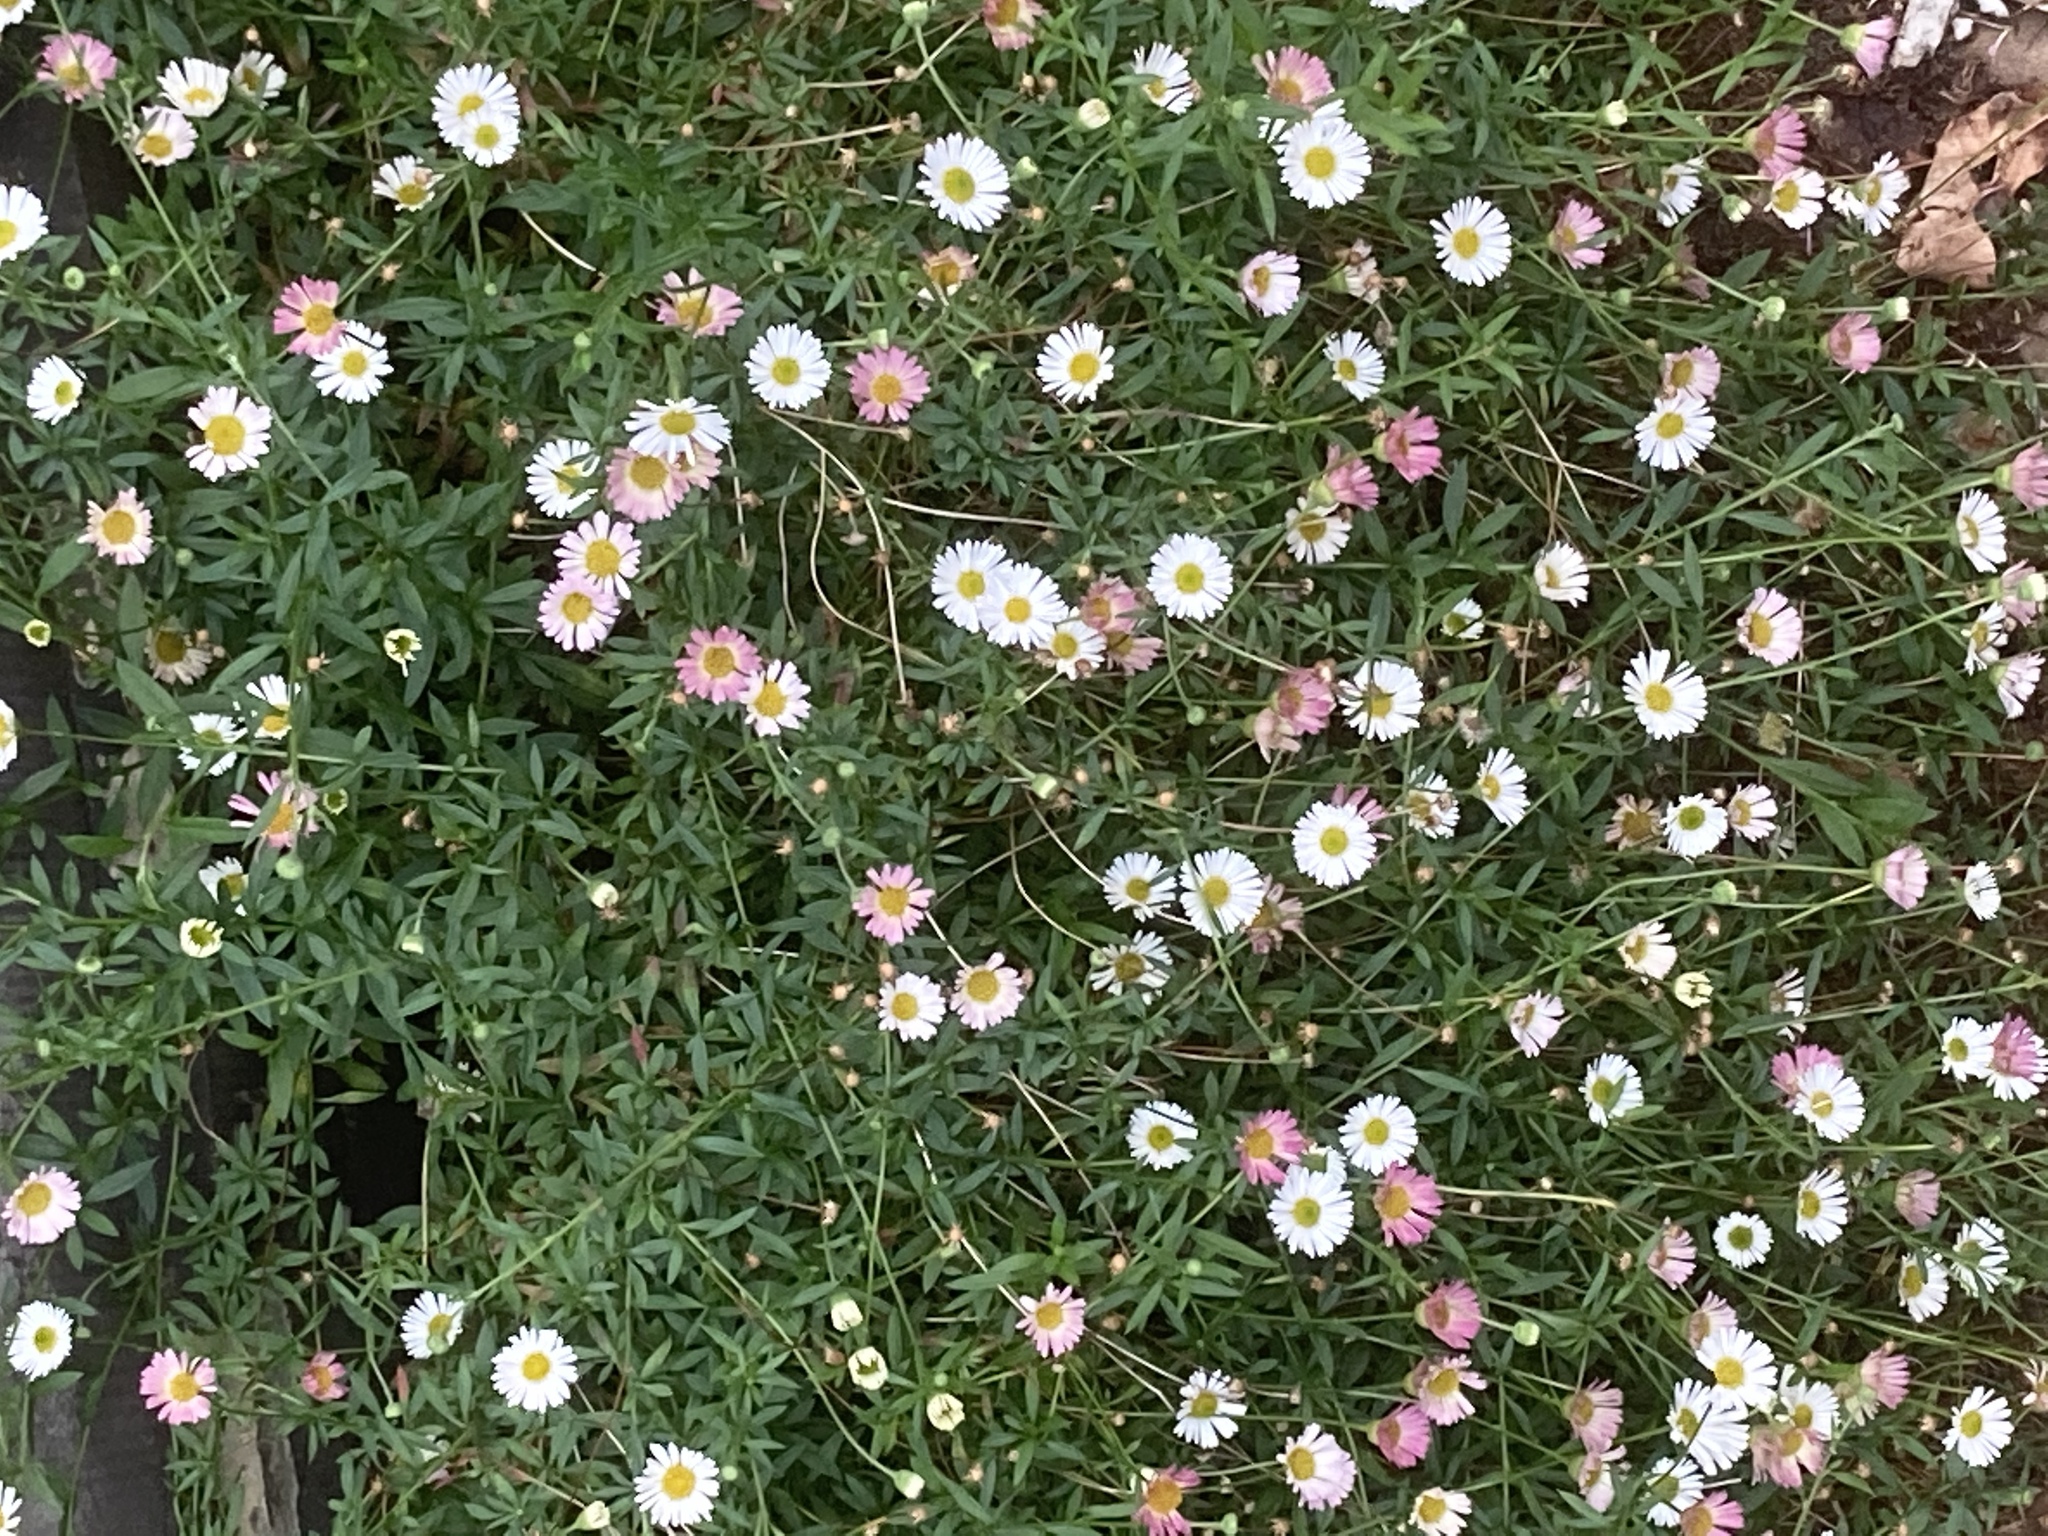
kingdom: Plantae
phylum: Tracheophyta
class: Magnoliopsida
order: Asterales
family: Asteraceae
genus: Erigeron
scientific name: Erigeron karvinskianus
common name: Mexican fleabane
